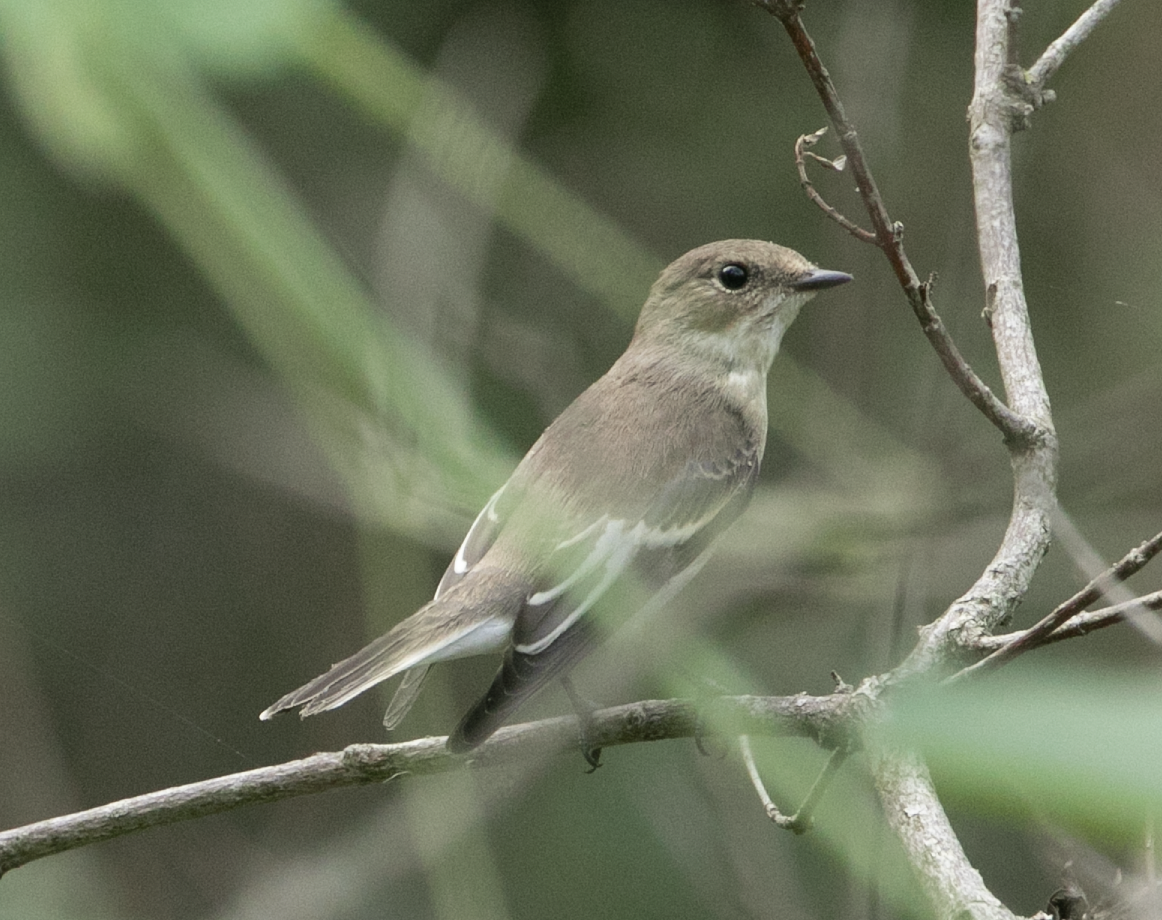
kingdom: Animalia
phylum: Chordata
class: Aves
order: Passeriformes
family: Muscicapidae
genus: Ficedula
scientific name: Ficedula hypoleuca
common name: European pied flycatcher
